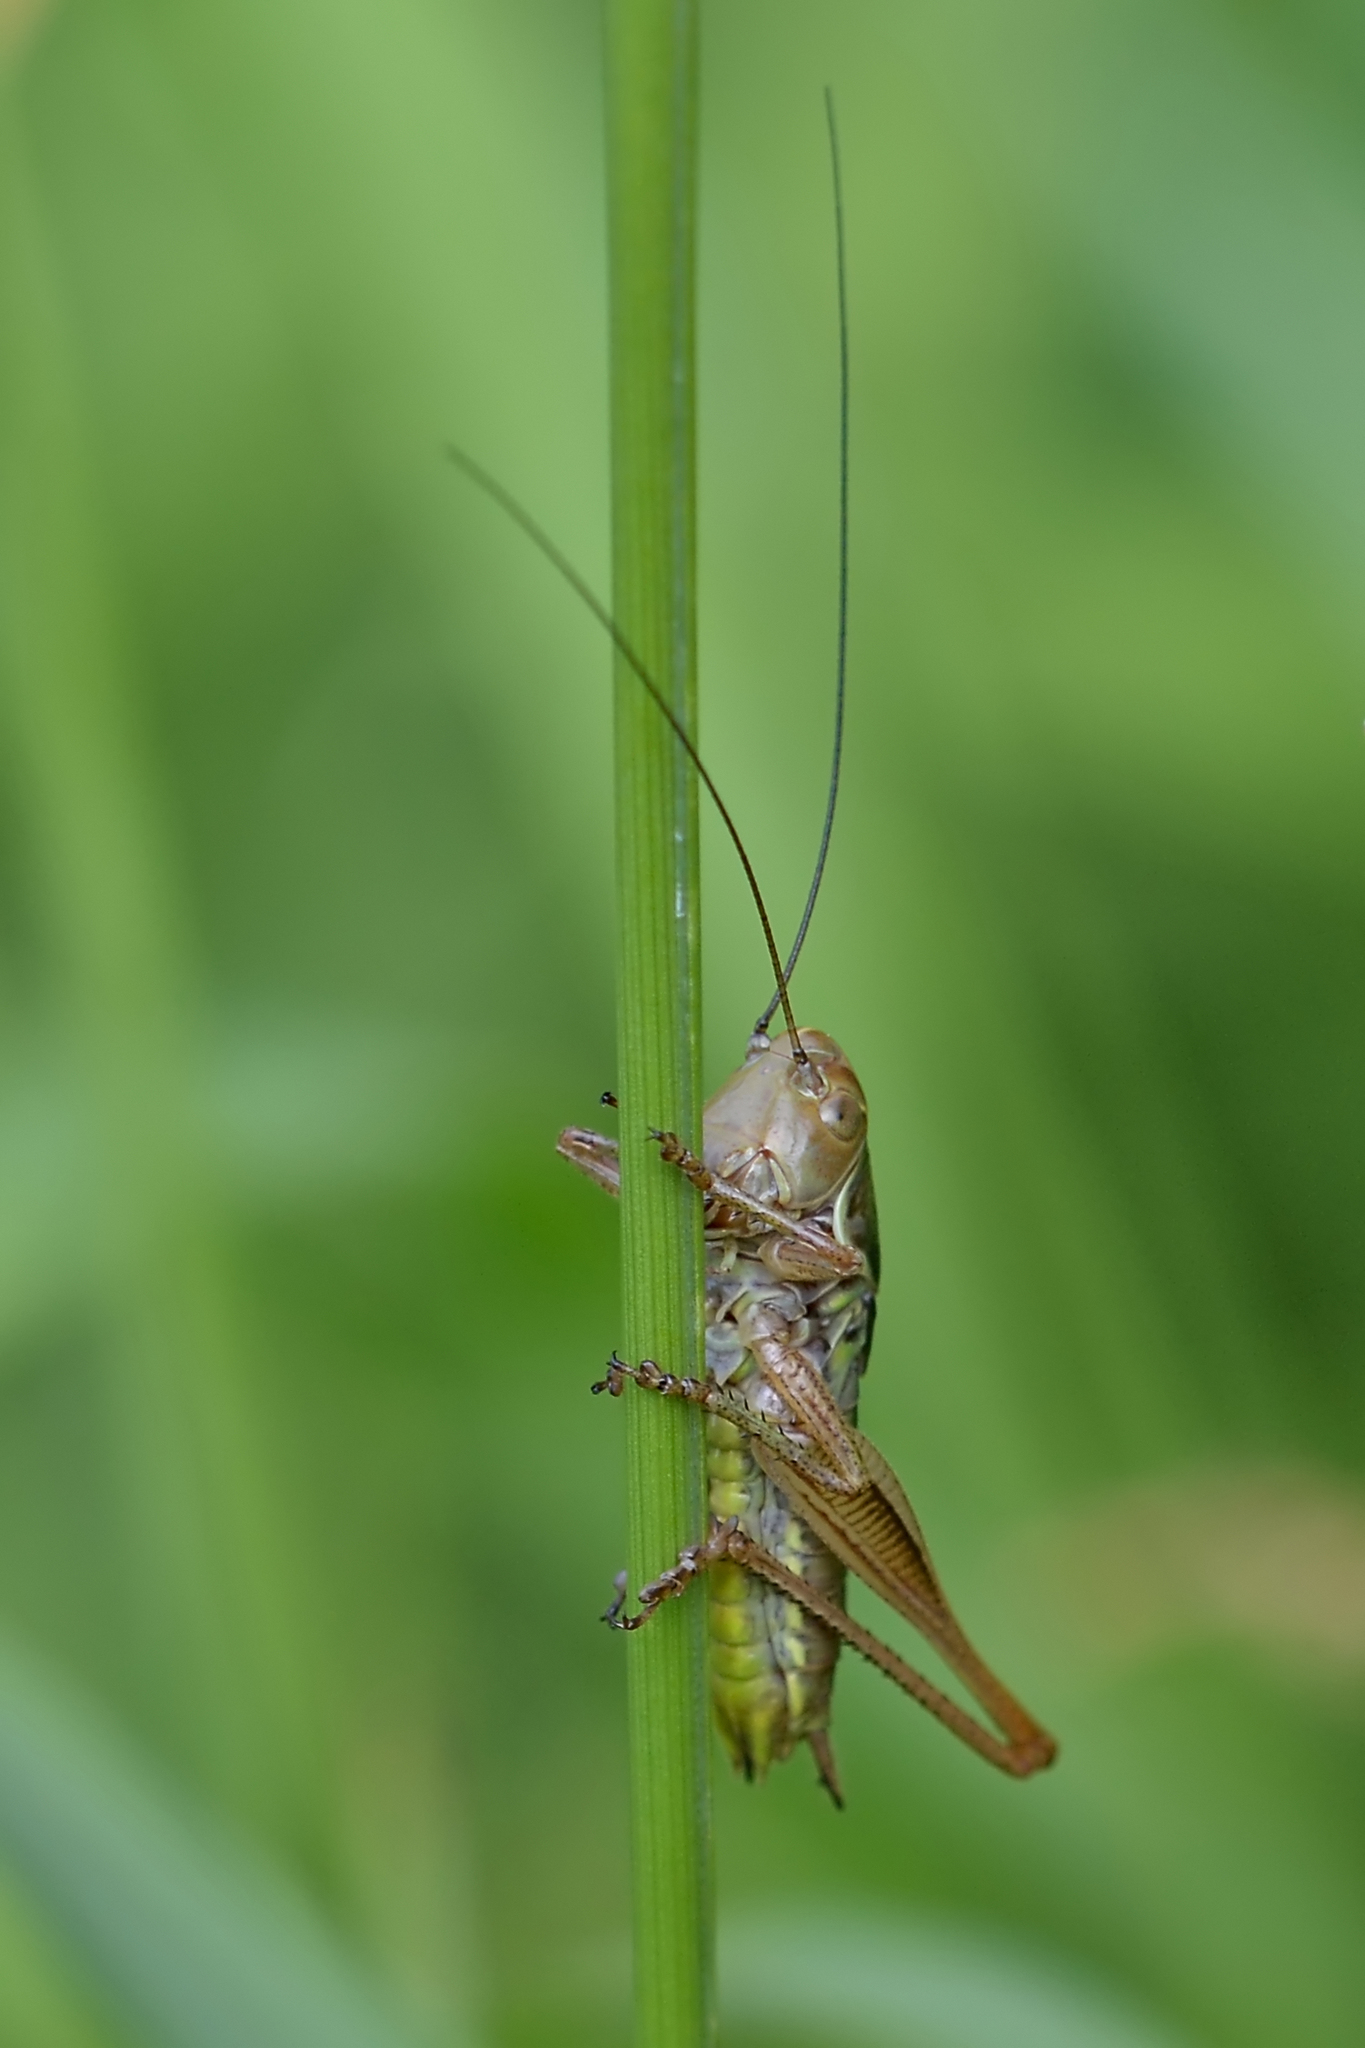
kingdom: Animalia
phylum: Arthropoda
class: Insecta
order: Orthoptera
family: Tettigoniidae
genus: Roeseliana
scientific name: Roeseliana roeselii
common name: Roesel's bush cricket
